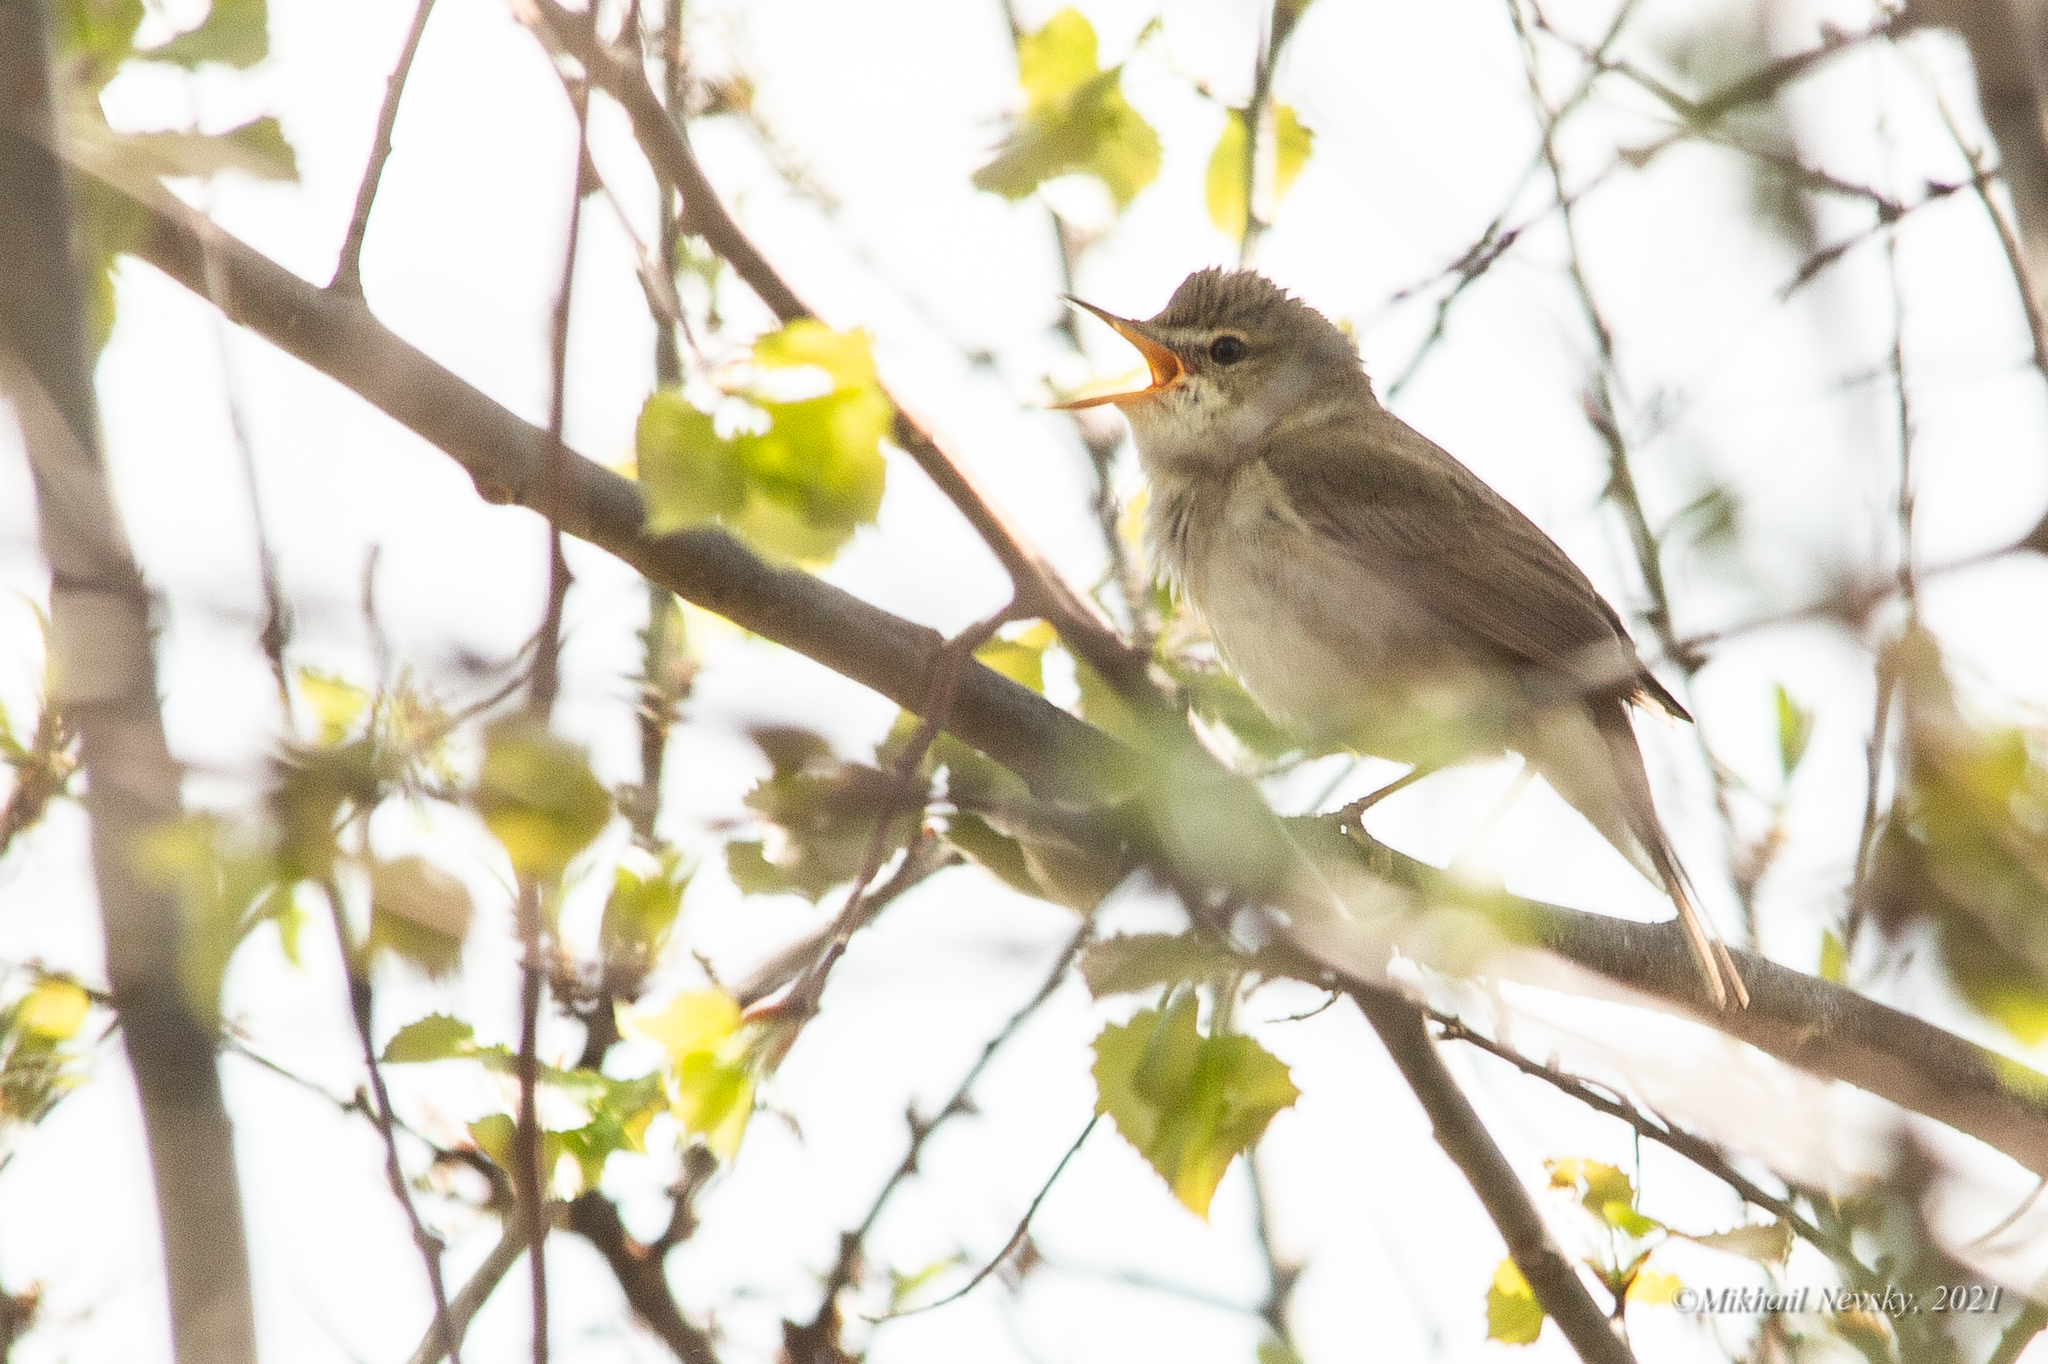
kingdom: Animalia
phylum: Chordata
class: Aves
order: Passeriformes
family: Acrocephalidae
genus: Acrocephalus
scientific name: Acrocephalus dumetorum
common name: Blyth's reed warbler
